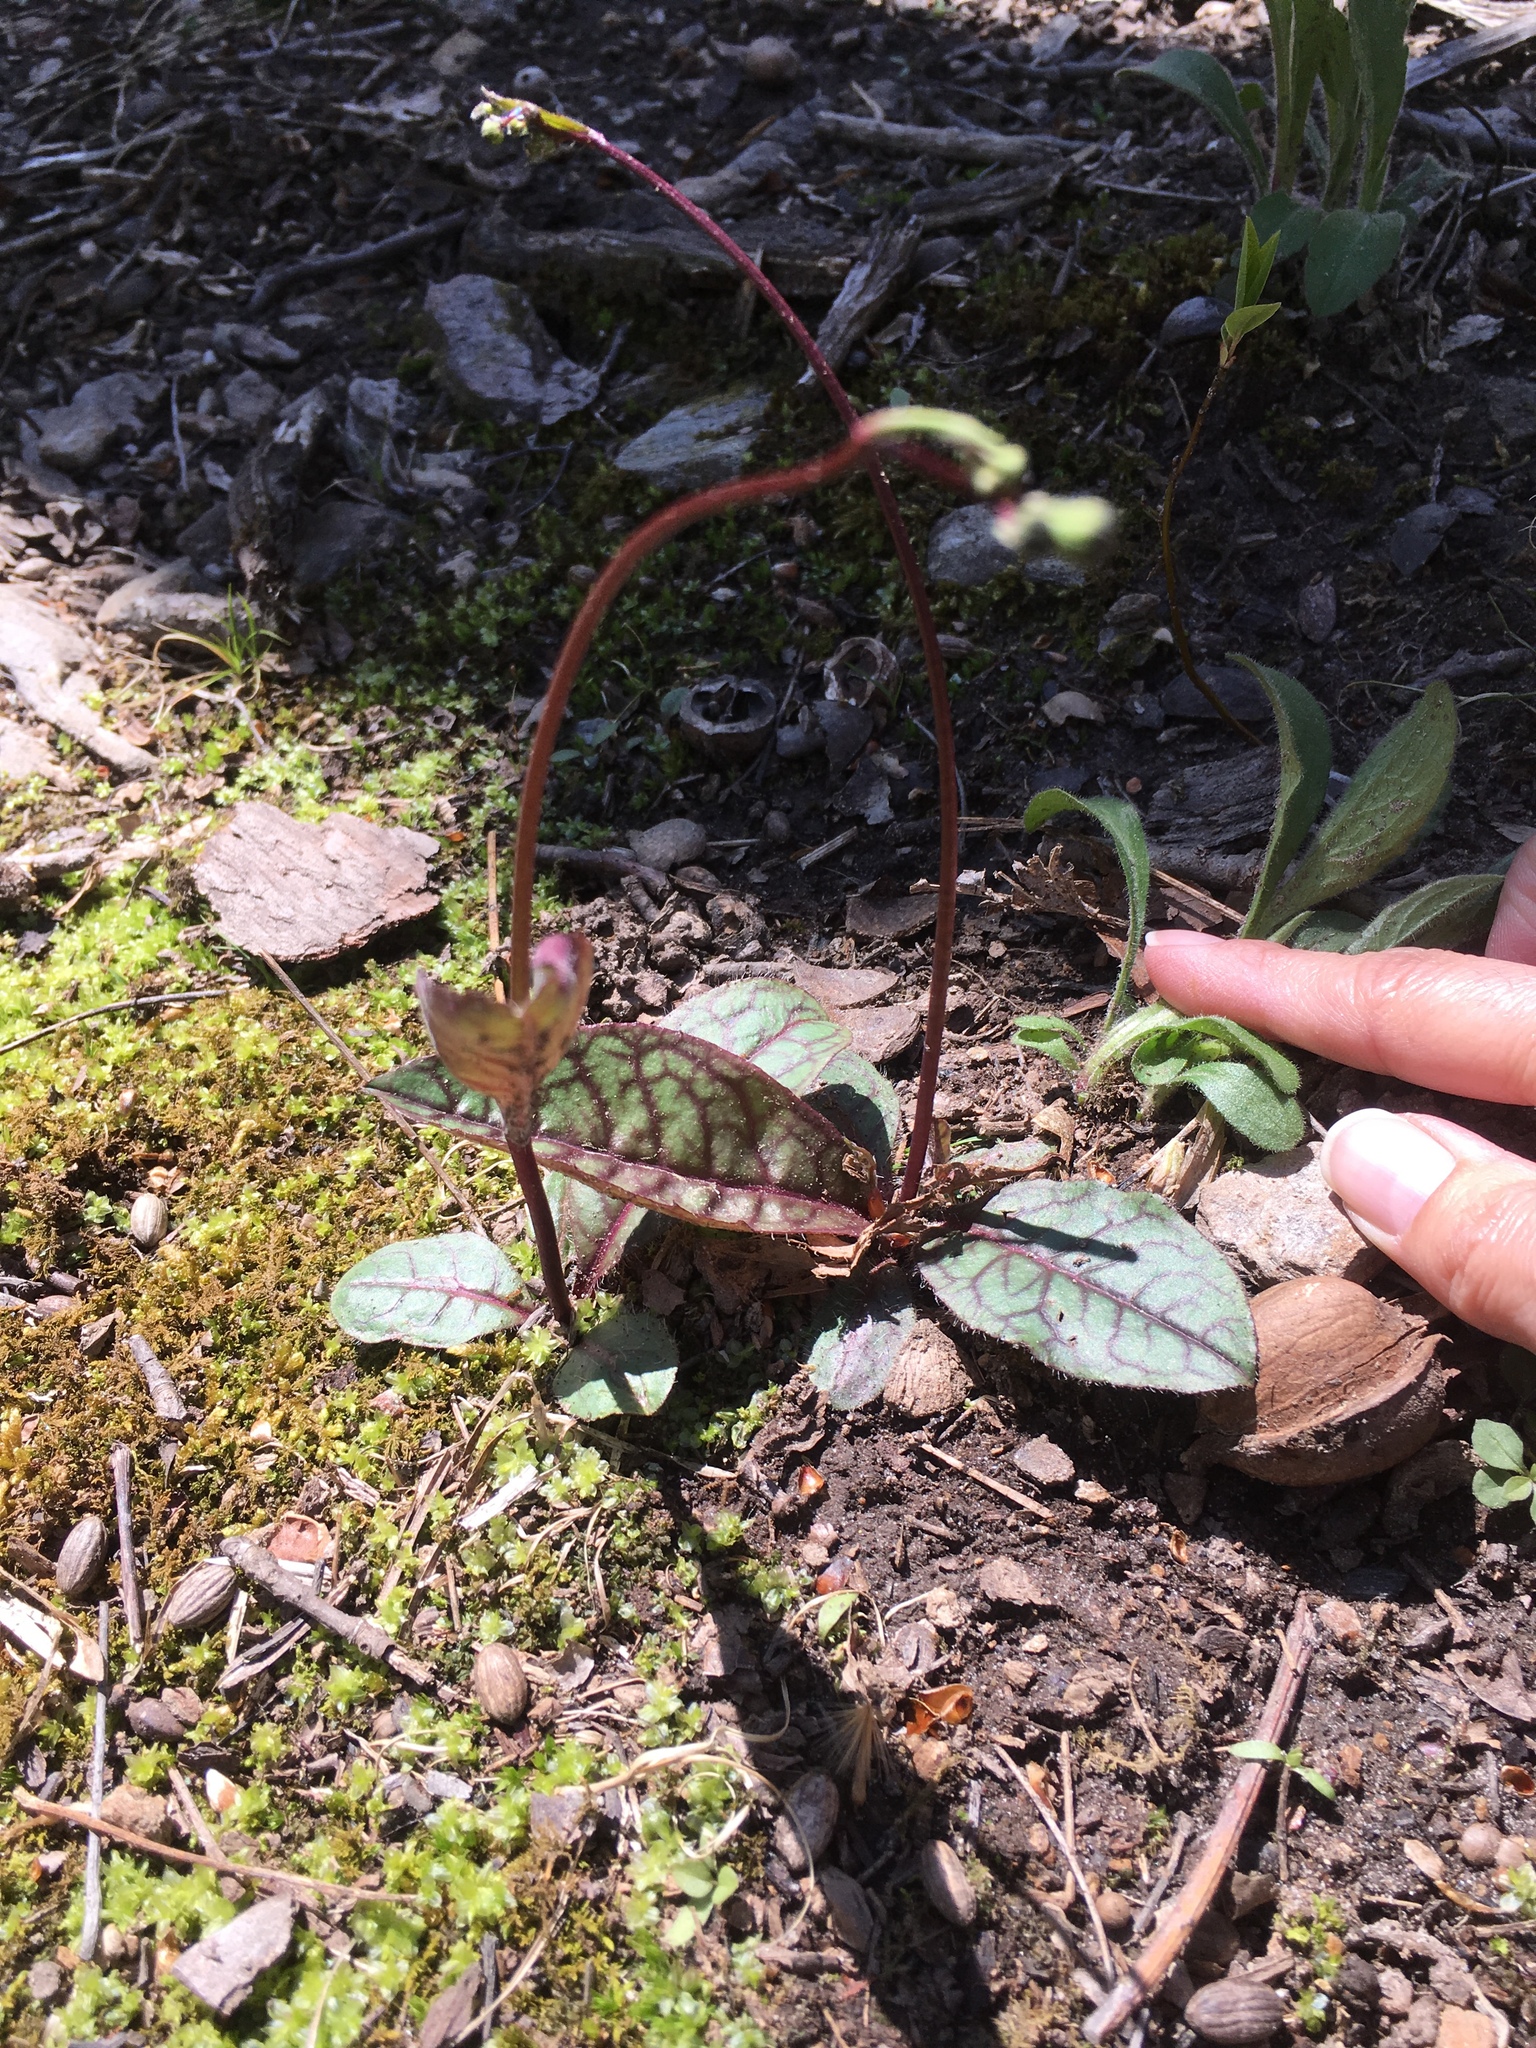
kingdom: Plantae
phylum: Tracheophyta
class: Magnoliopsida
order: Asterales
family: Asteraceae
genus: Hieracium
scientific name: Hieracium venosum
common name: Rattlesnake hawkweed
